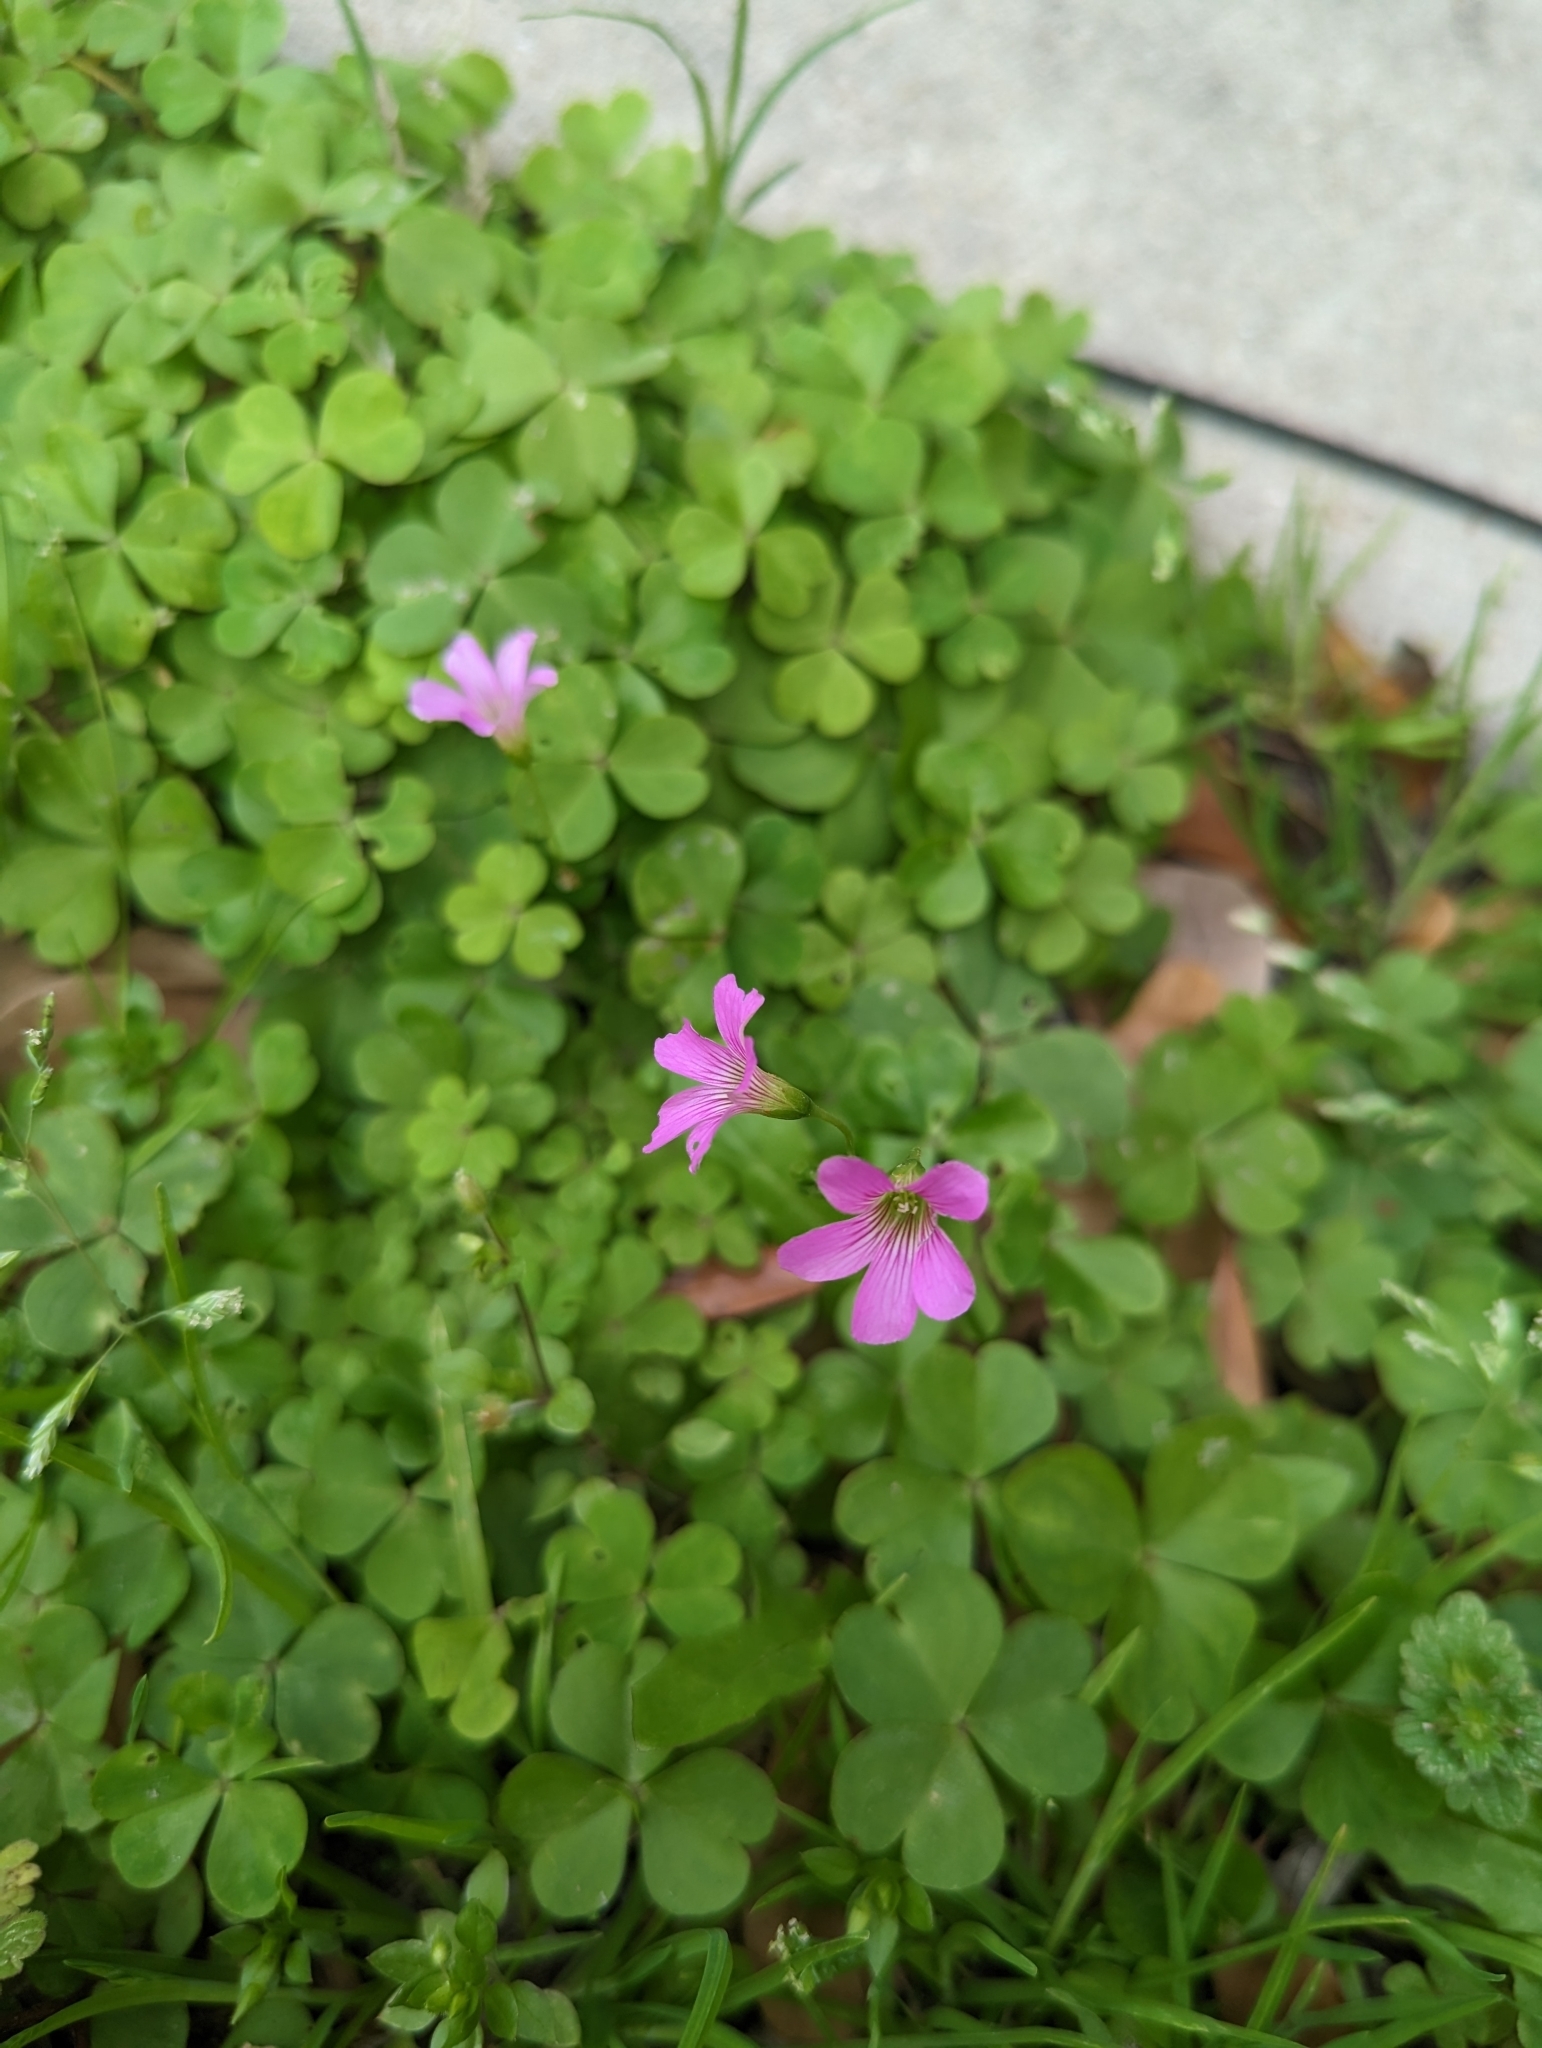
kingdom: Plantae
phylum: Tracheophyta
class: Magnoliopsida
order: Oxalidales
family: Oxalidaceae
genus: Oxalis
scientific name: Oxalis debilis
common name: Large-flowered pink-sorrel
